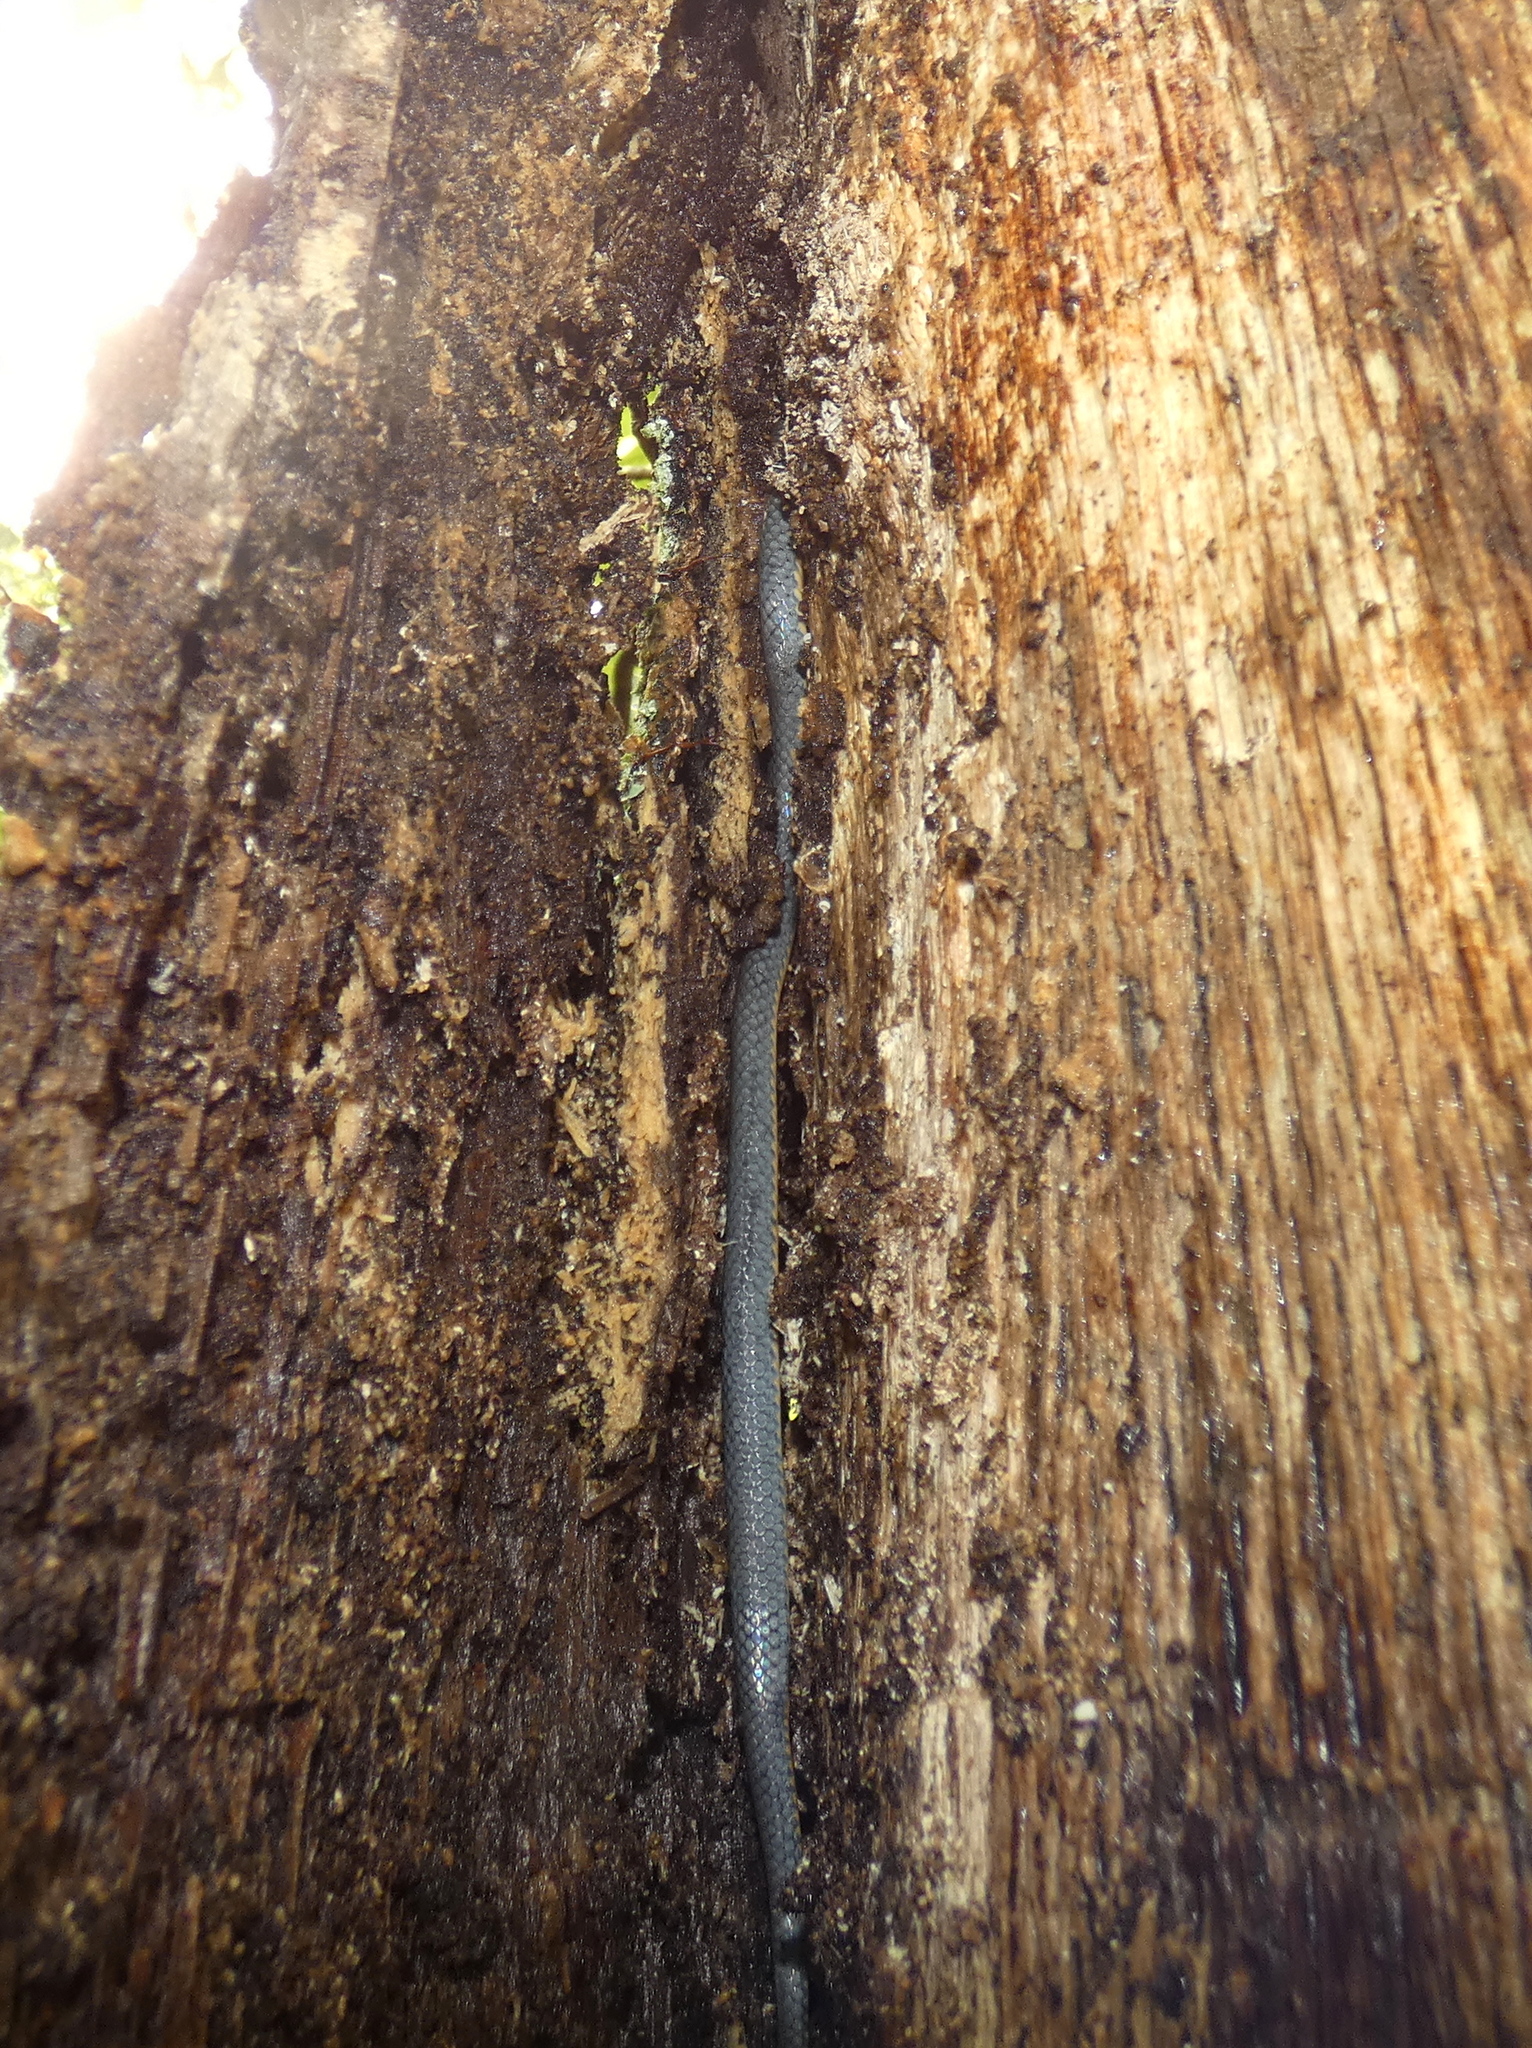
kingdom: Animalia
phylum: Chordata
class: Squamata
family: Colubridae
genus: Diadophis
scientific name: Diadophis punctatus
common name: Ringneck snake
